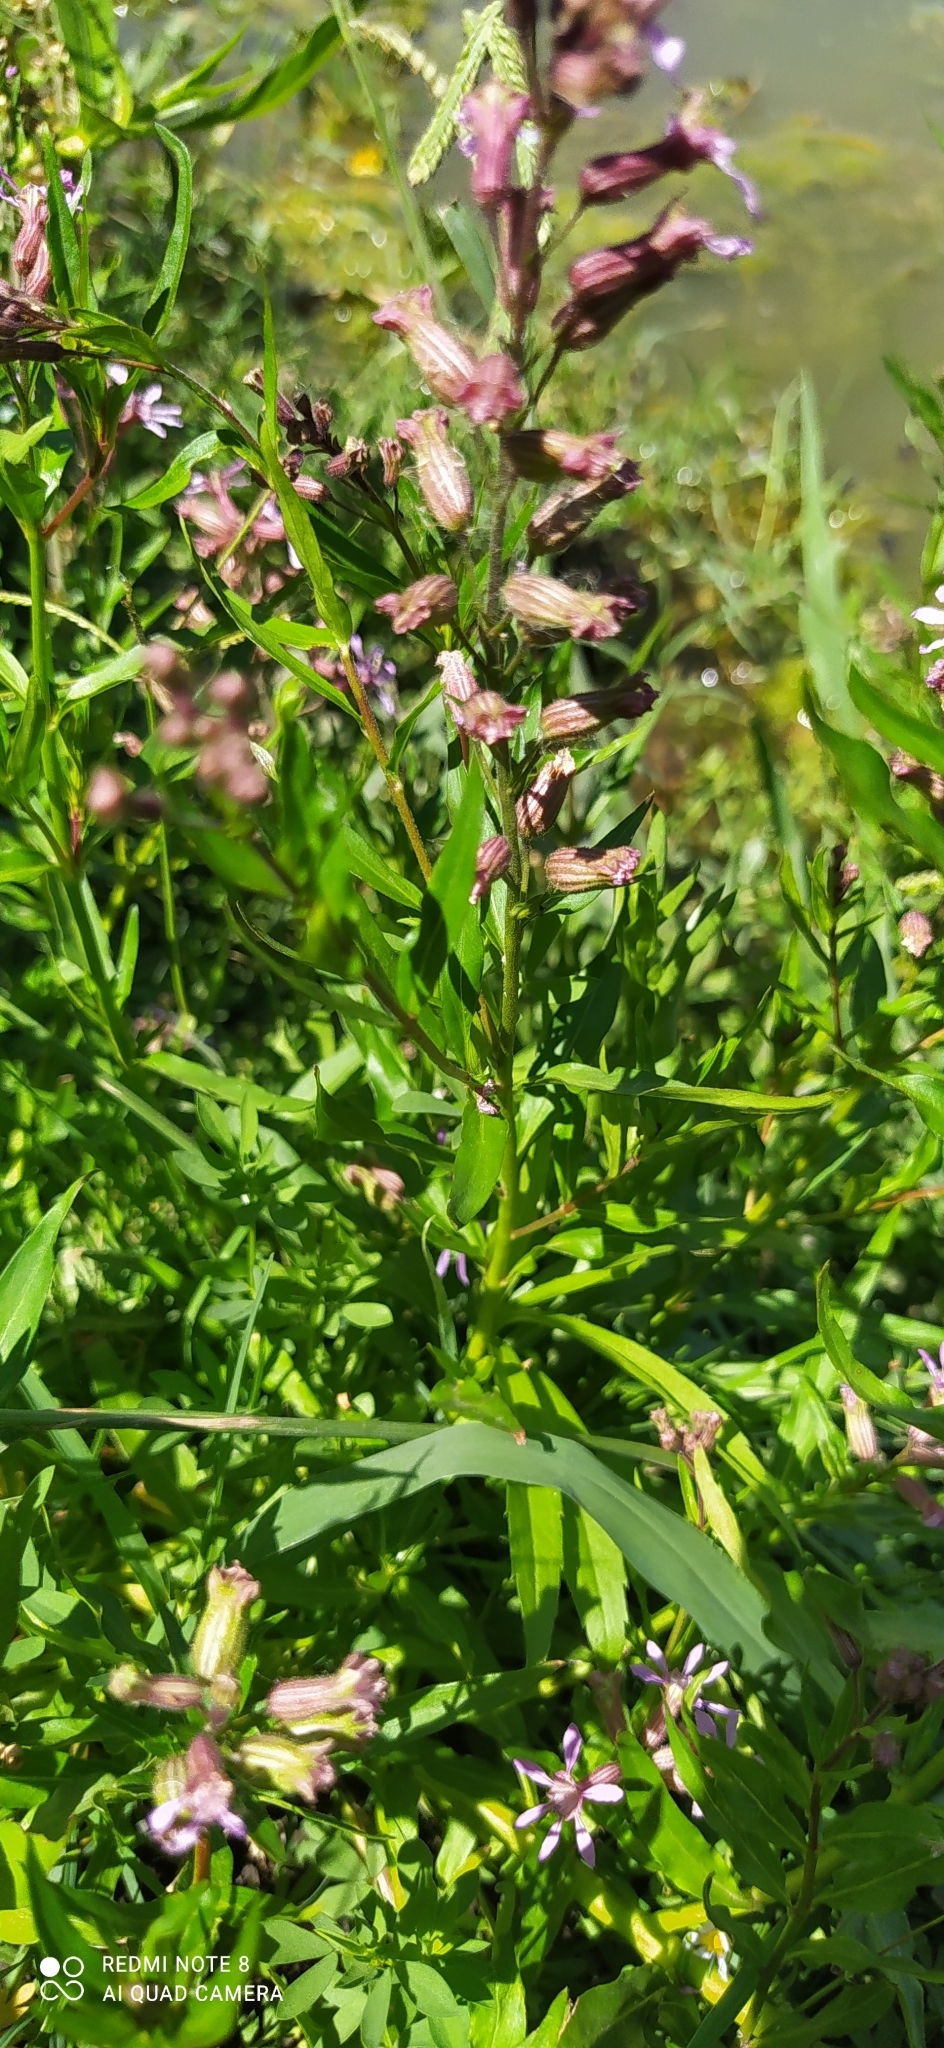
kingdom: Plantae
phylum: Tracheophyta
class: Magnoliopsida
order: Myrtales
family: Lythraceae
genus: Cuphea
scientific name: Cuphea racemosa
